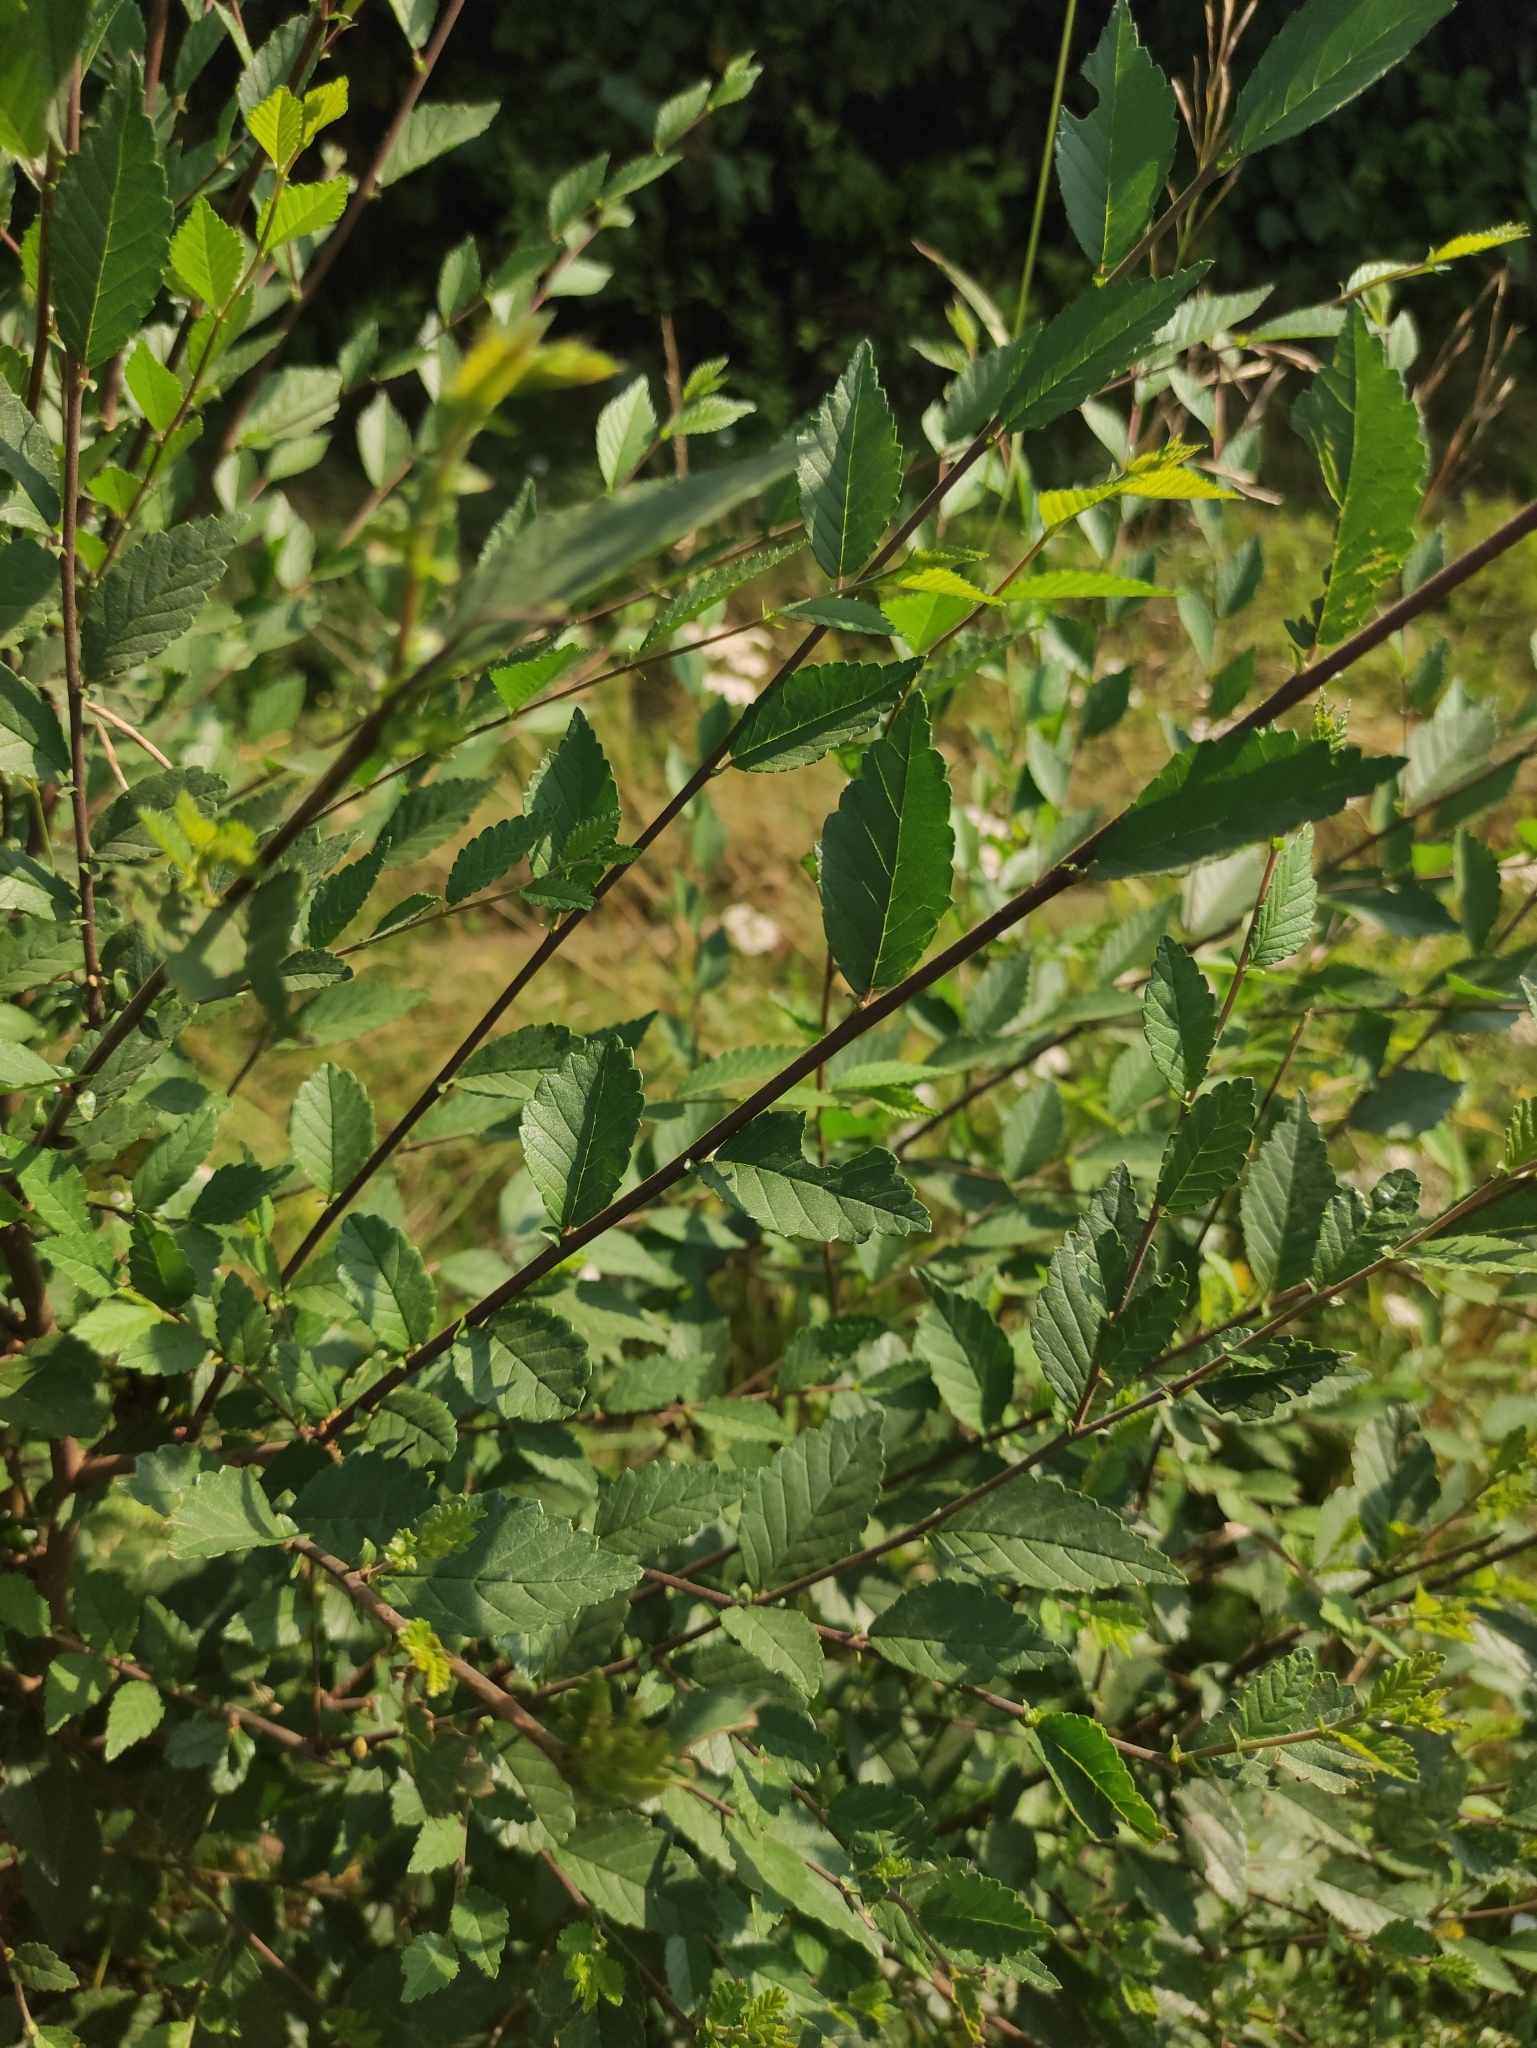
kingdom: Plantae
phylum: Tracheophyta
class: Magnoliopsida
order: Rosales
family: Ulmaceae
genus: Ulmus
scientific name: Ulmus pumila
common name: Siberian elm
